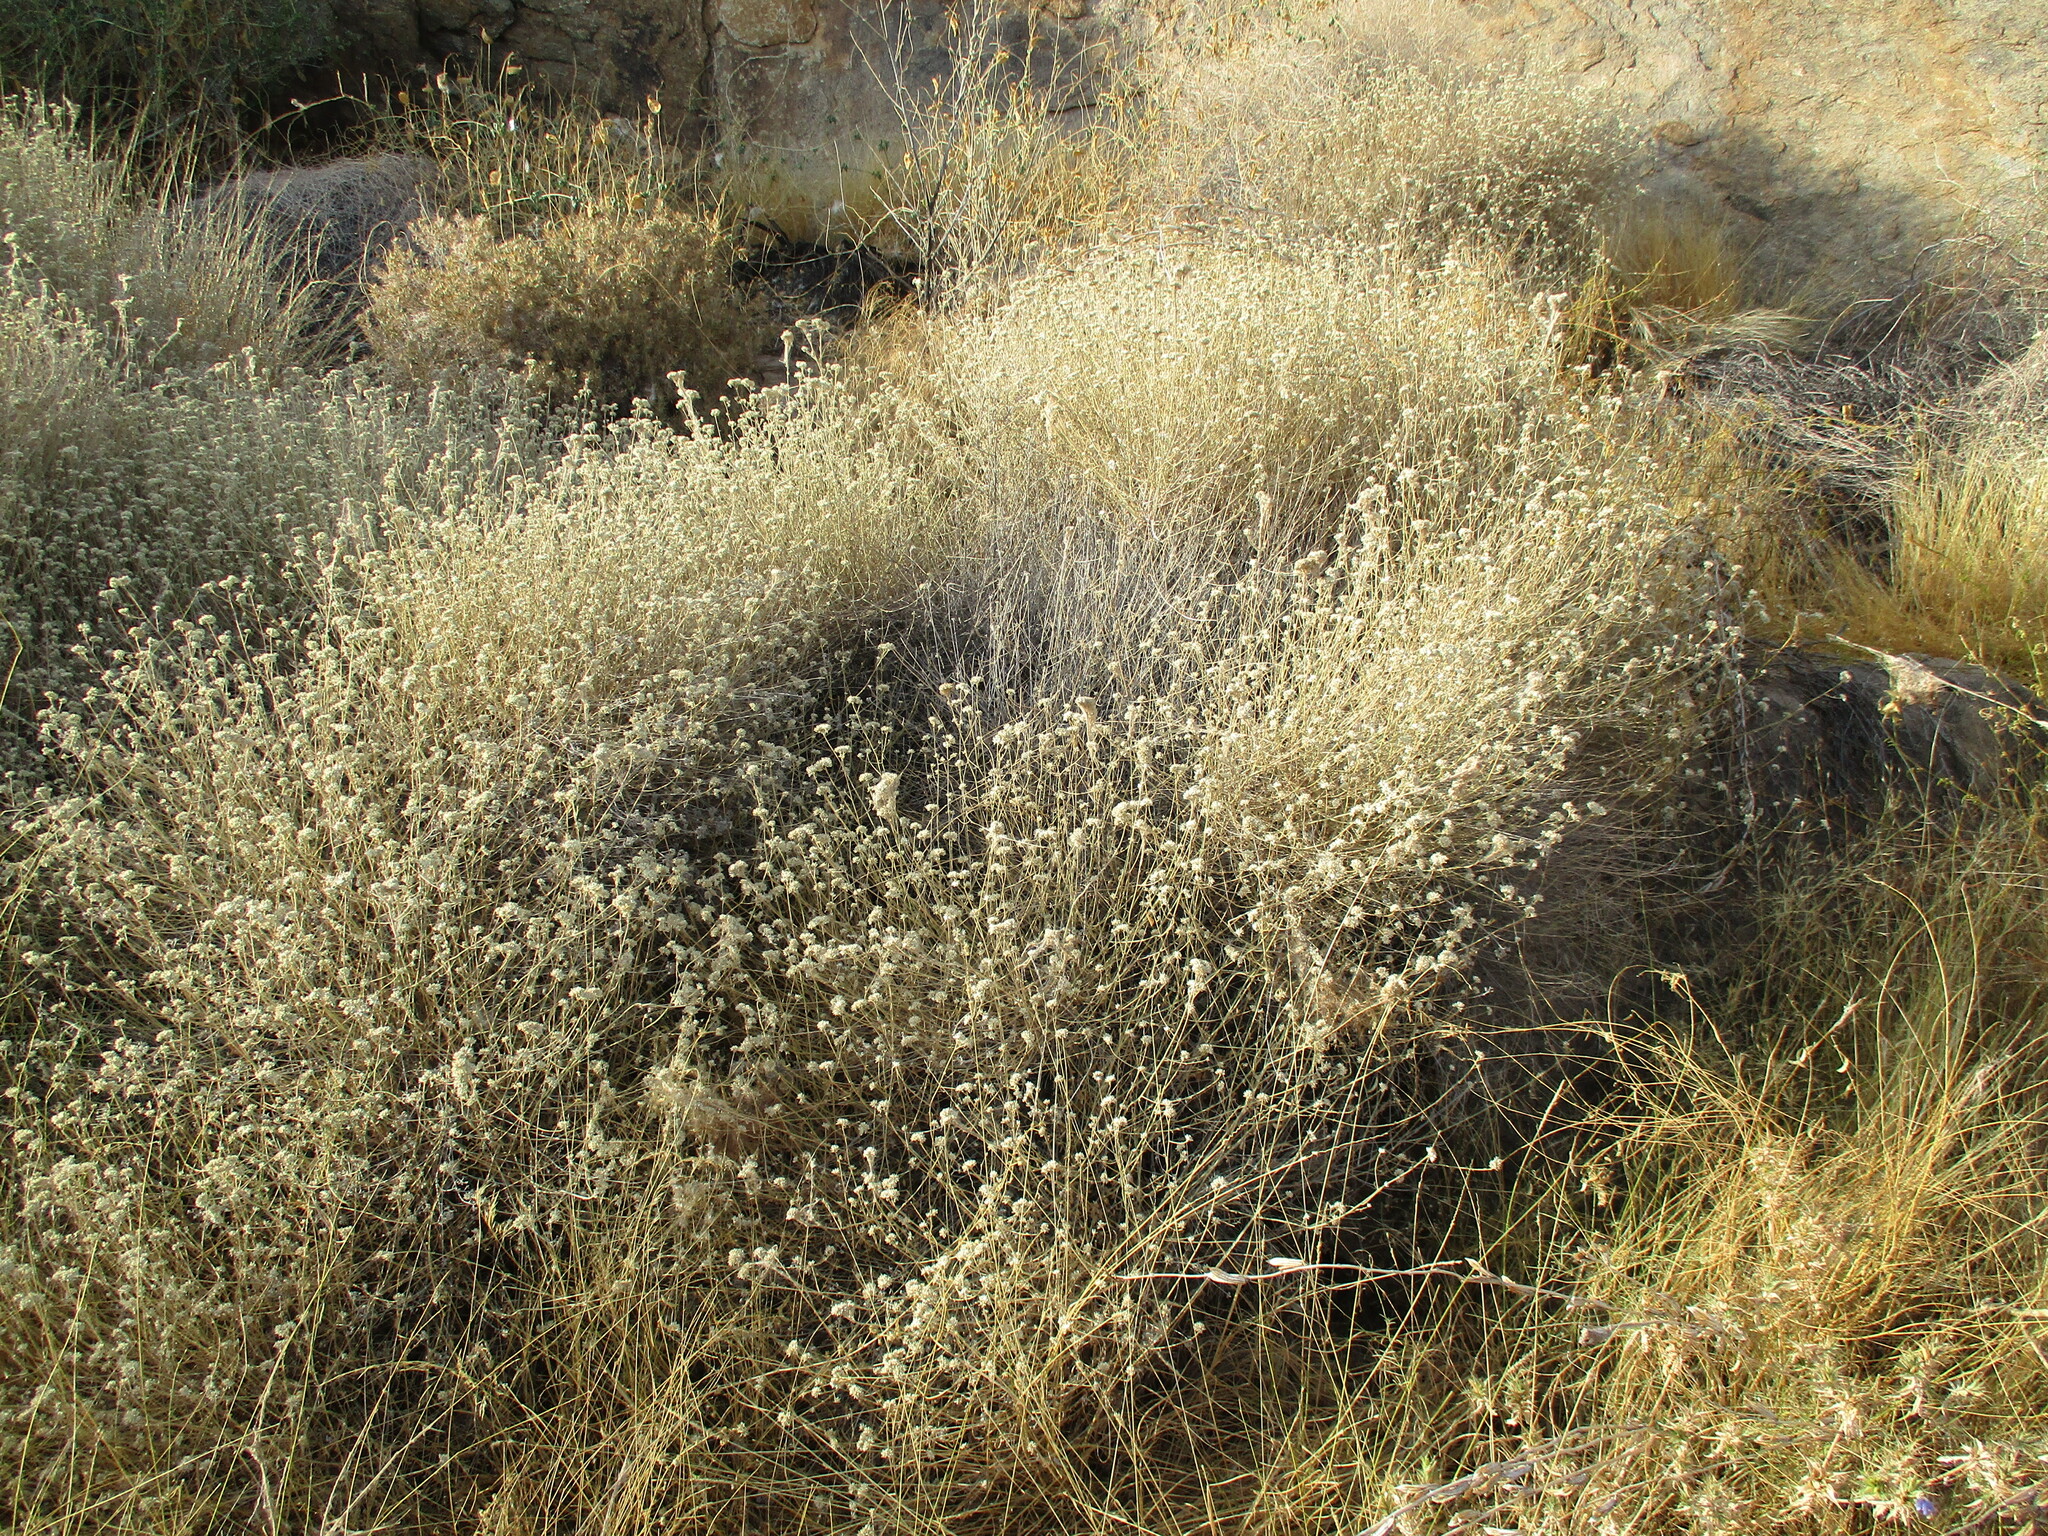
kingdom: Plantae
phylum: Tracheophyta
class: Magnoliopsida
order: Asterales
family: Asteraceae
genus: Helichrysum
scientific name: Helichrysum tomentosulum
